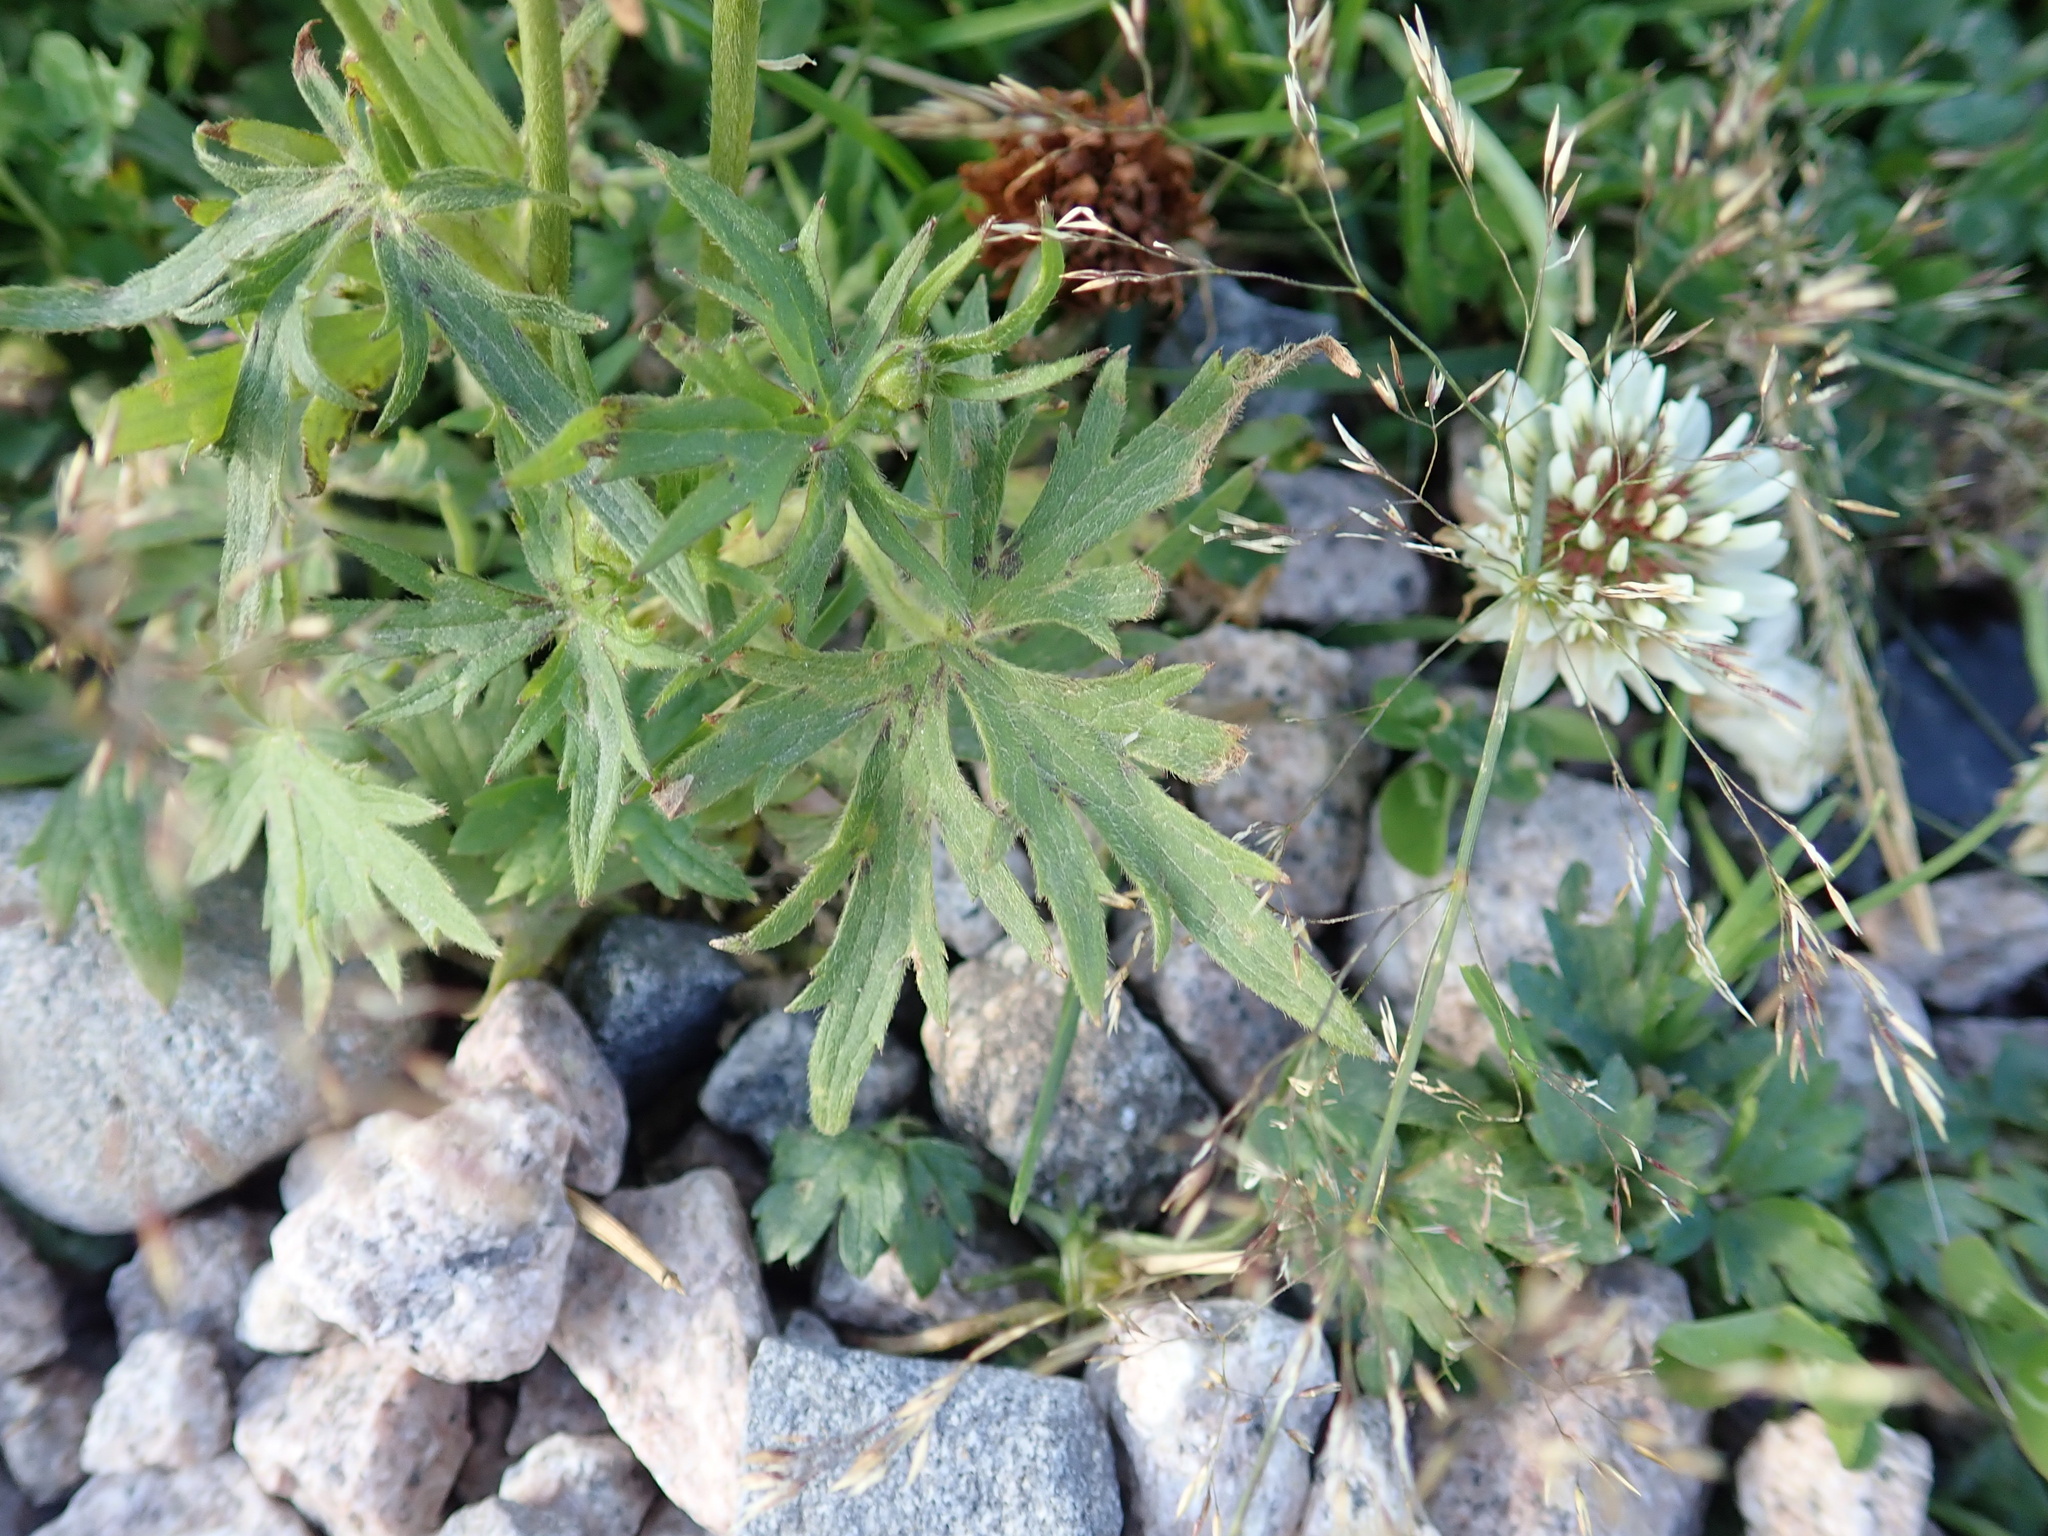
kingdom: Plantae
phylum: Tracheophyta
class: Magnoliopsida
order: Ranunculales
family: Ranunculaceae
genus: Ranunculus
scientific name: Ranunculus acris
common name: Meadow buttercup
